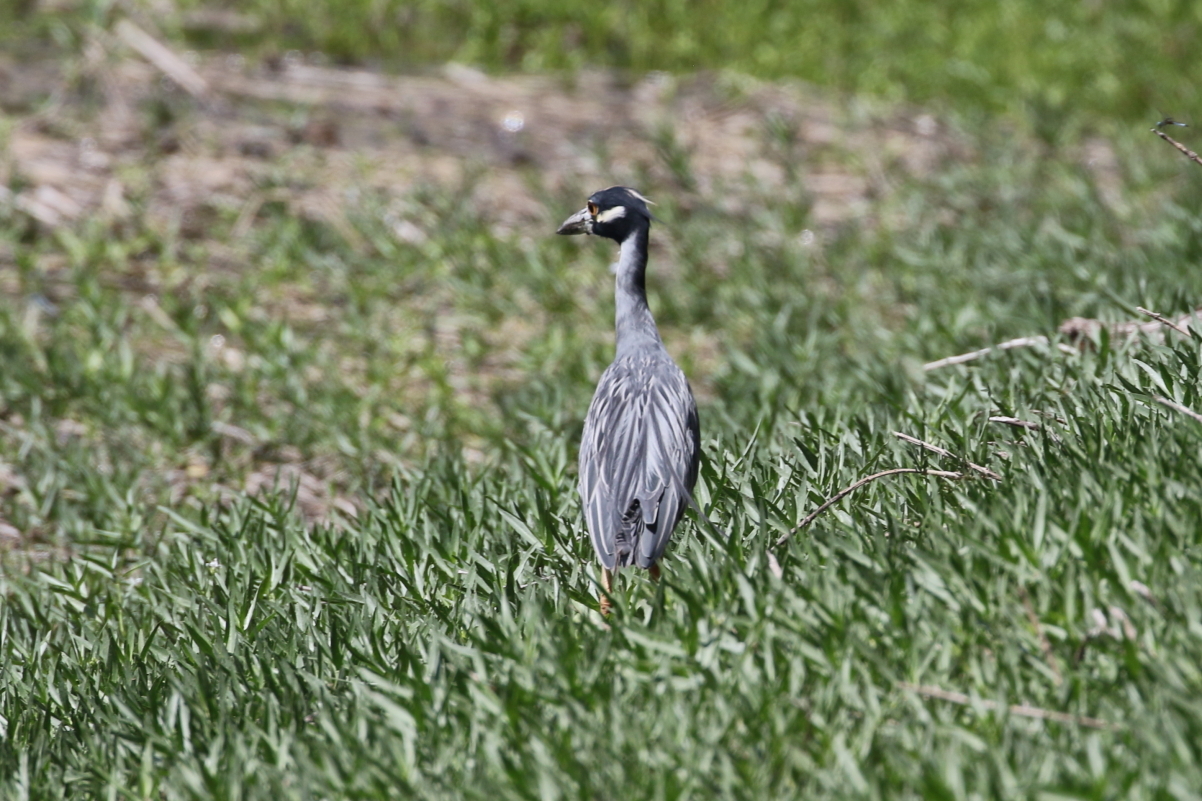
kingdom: Animalia
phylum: Chordata
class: Aves
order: Pelecaniformes
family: Ardeidae
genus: Nyctanassa
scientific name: Nyctanassa violacea
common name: Yellow-crowned night heron
